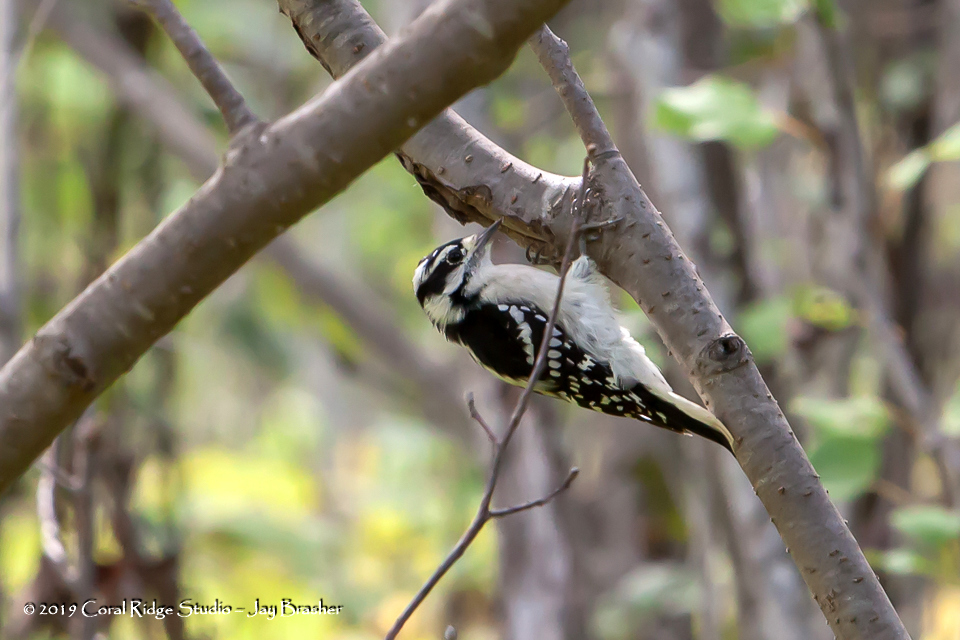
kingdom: Animalia
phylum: Chordata
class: Aves
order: Piciformes
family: Picidae
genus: Dryobates
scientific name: Dryobates pubescens
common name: Downy woodpecker
